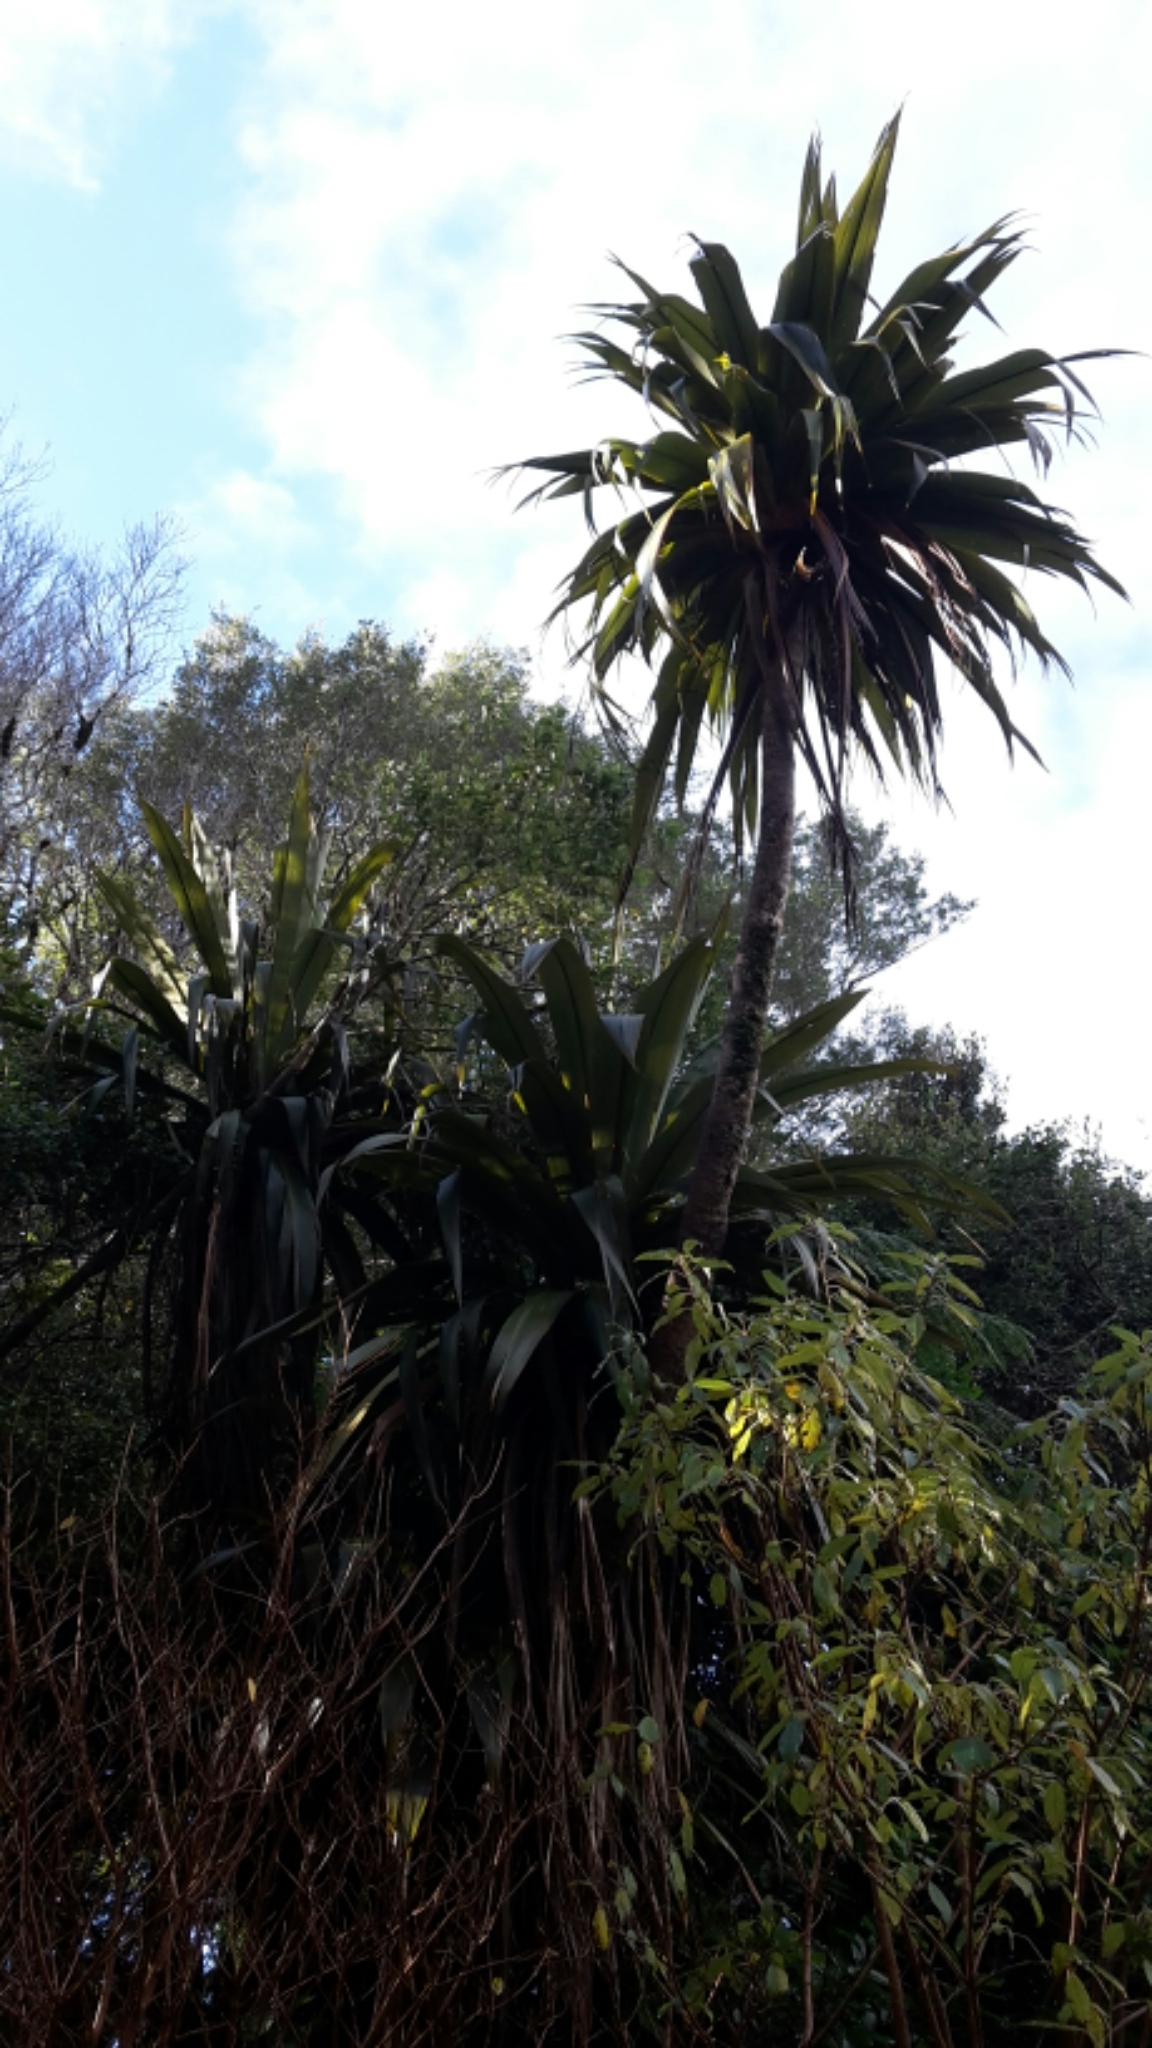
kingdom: Plantae
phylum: Tracheophyta
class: Liliopsida
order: Asparagales
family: Asparagaceae
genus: Cordyline
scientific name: Cordyline indivisa
